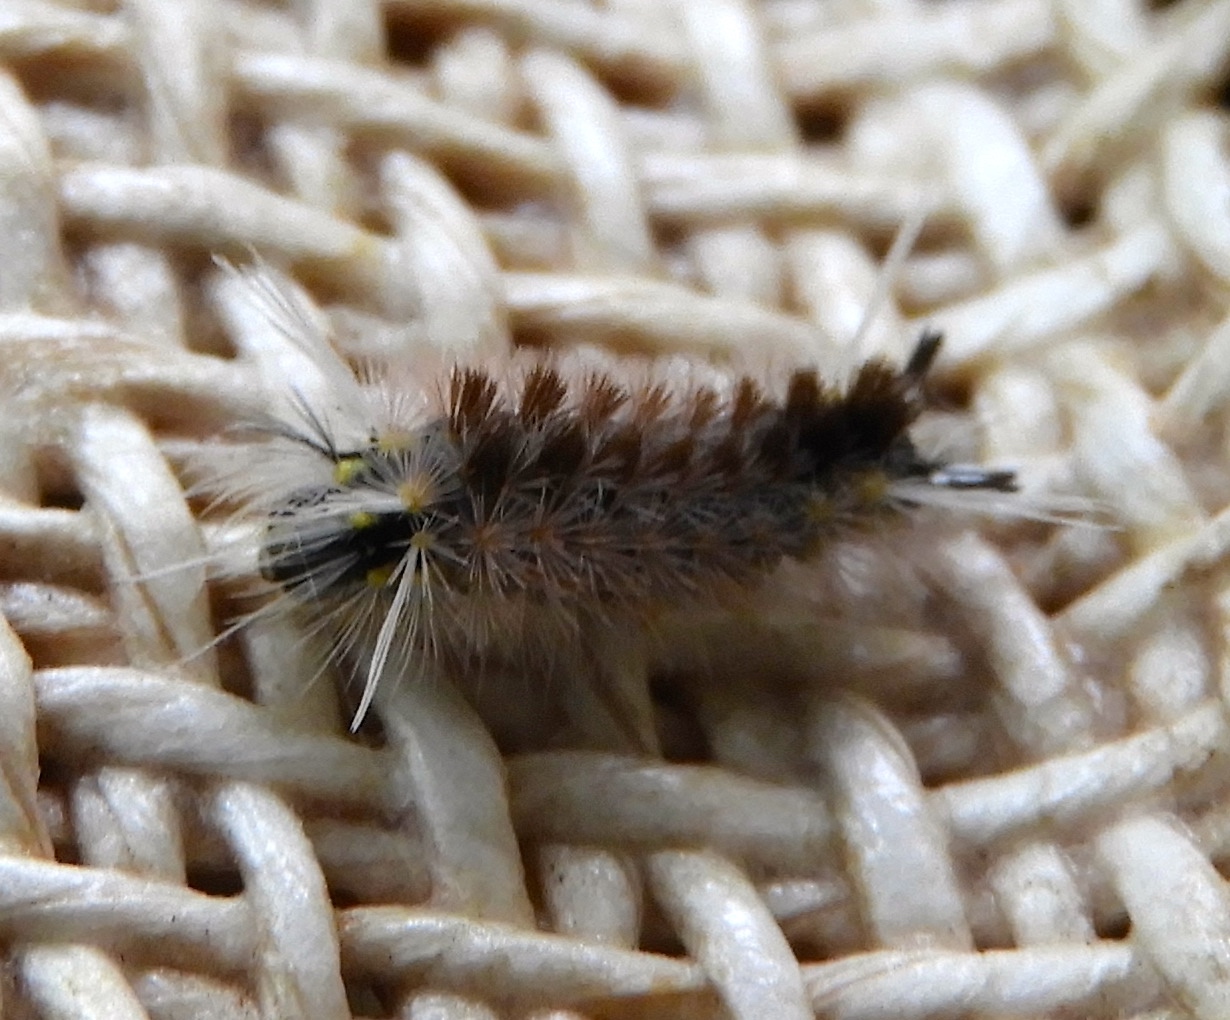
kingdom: Animalia
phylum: Arthropoda
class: Insecta
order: Lepidoptera
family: Erebidae
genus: Lophocampa
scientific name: Lophocampa
